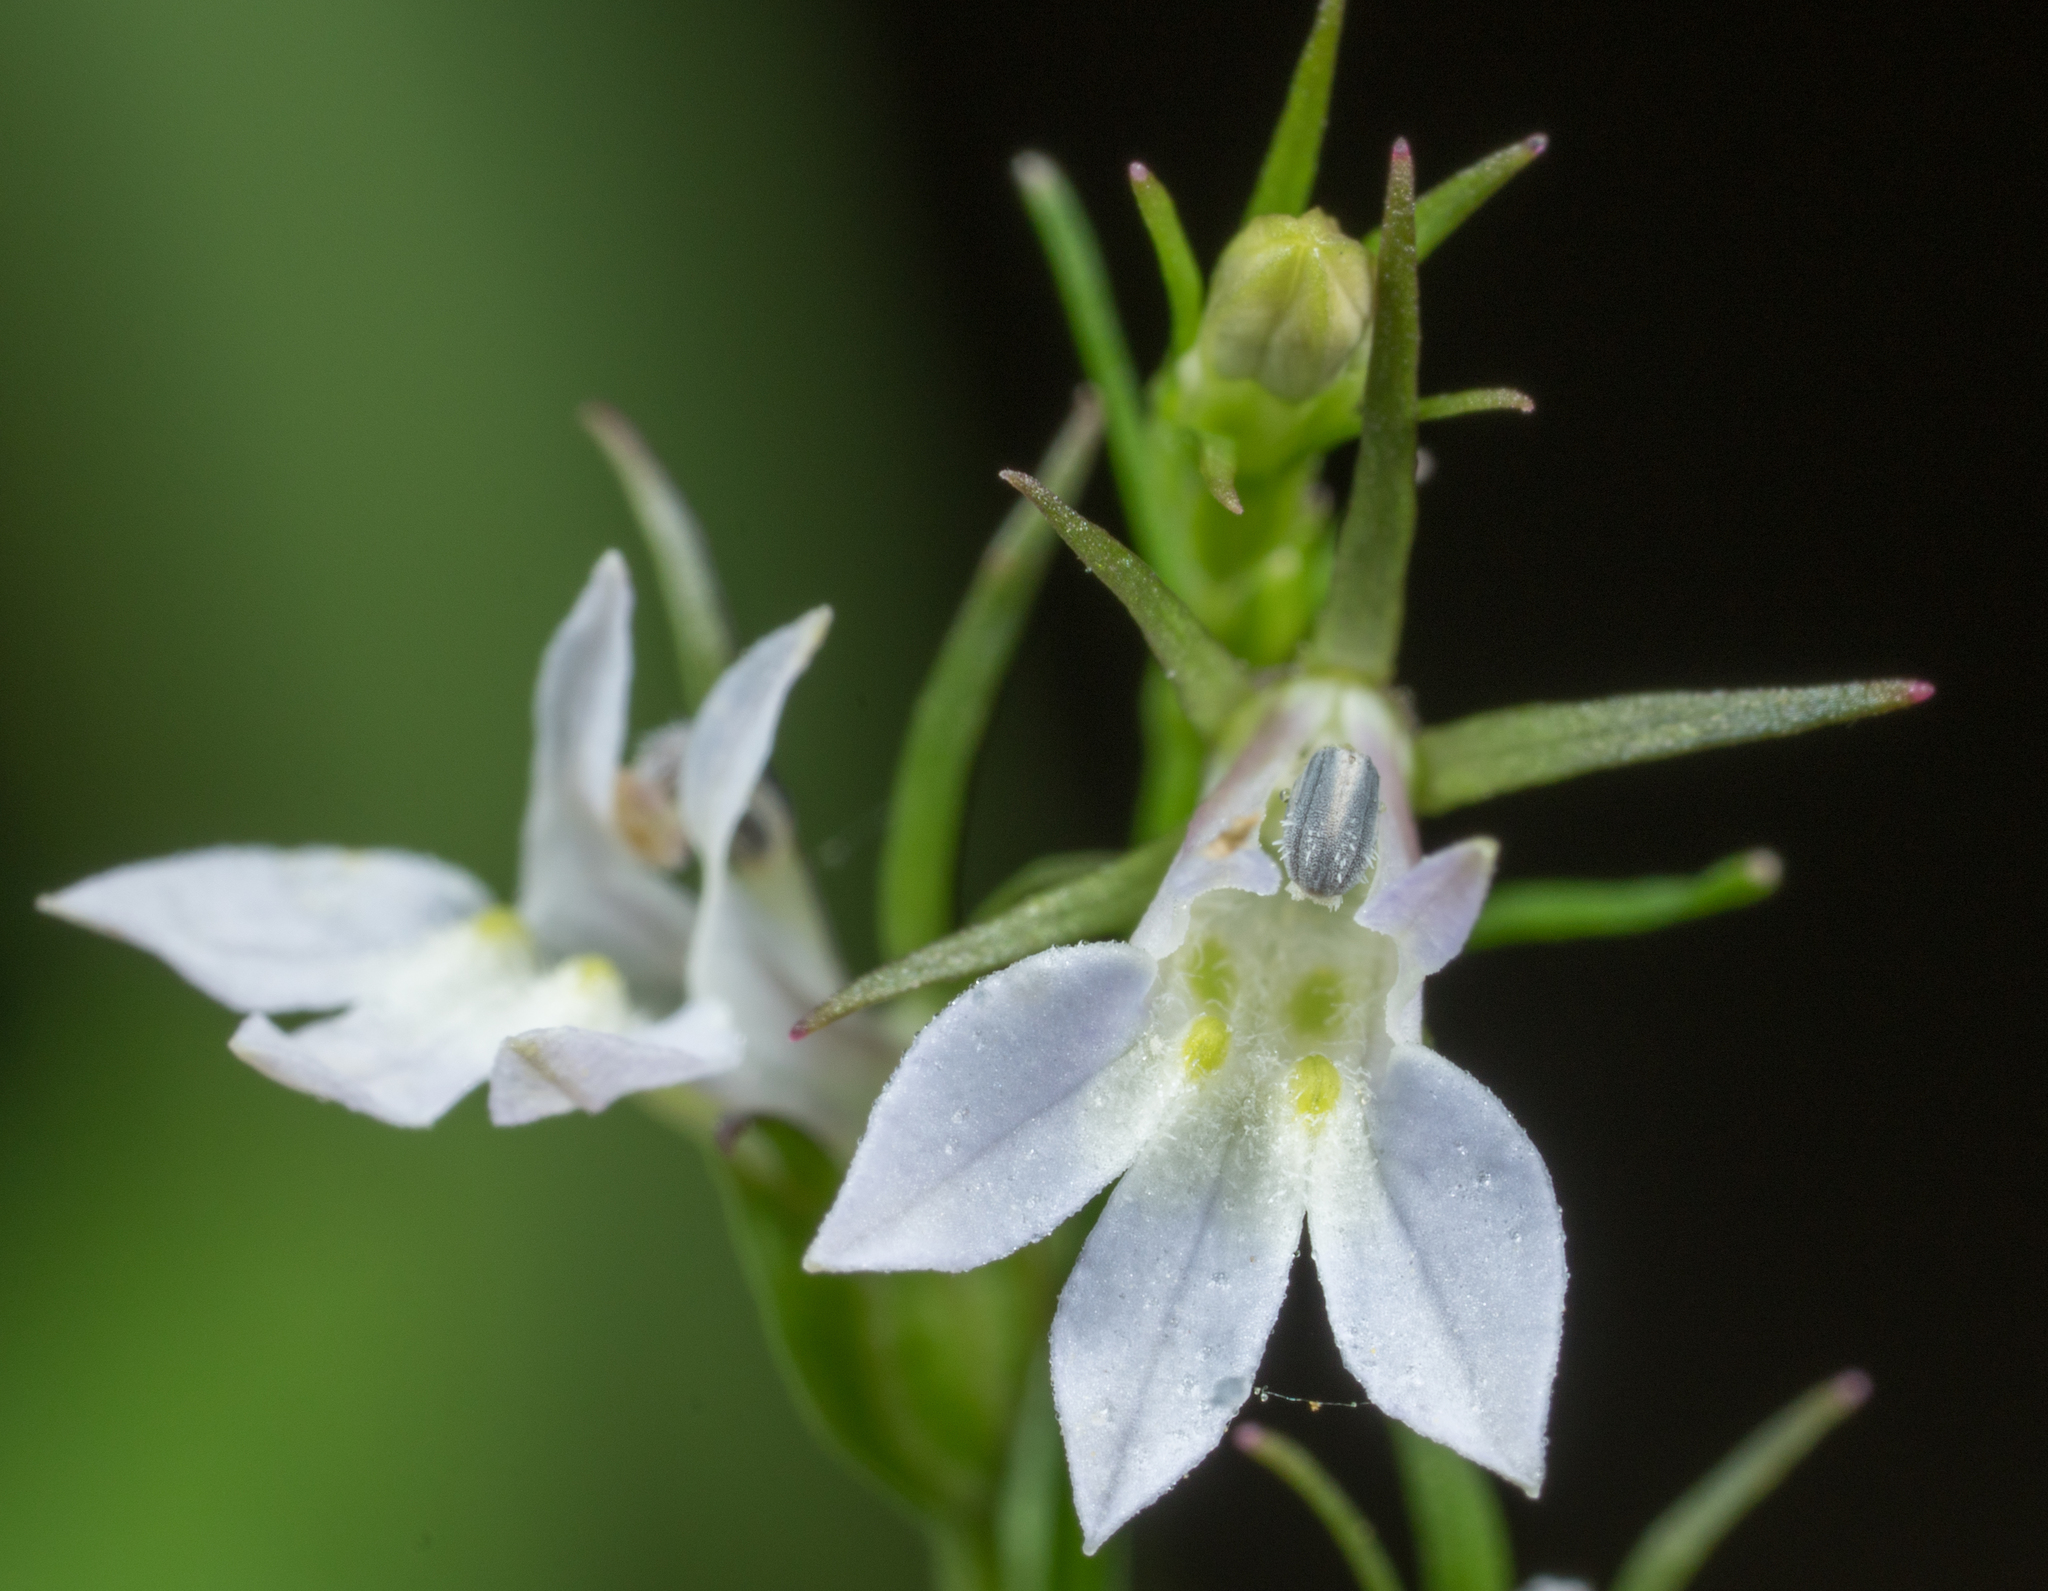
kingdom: Plantae
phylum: Tracheophyta
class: Magnoliopsida
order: Asterales
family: Campanulaceae
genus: Lobelia
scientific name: Lobelia inflata
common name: Indian tobacco
